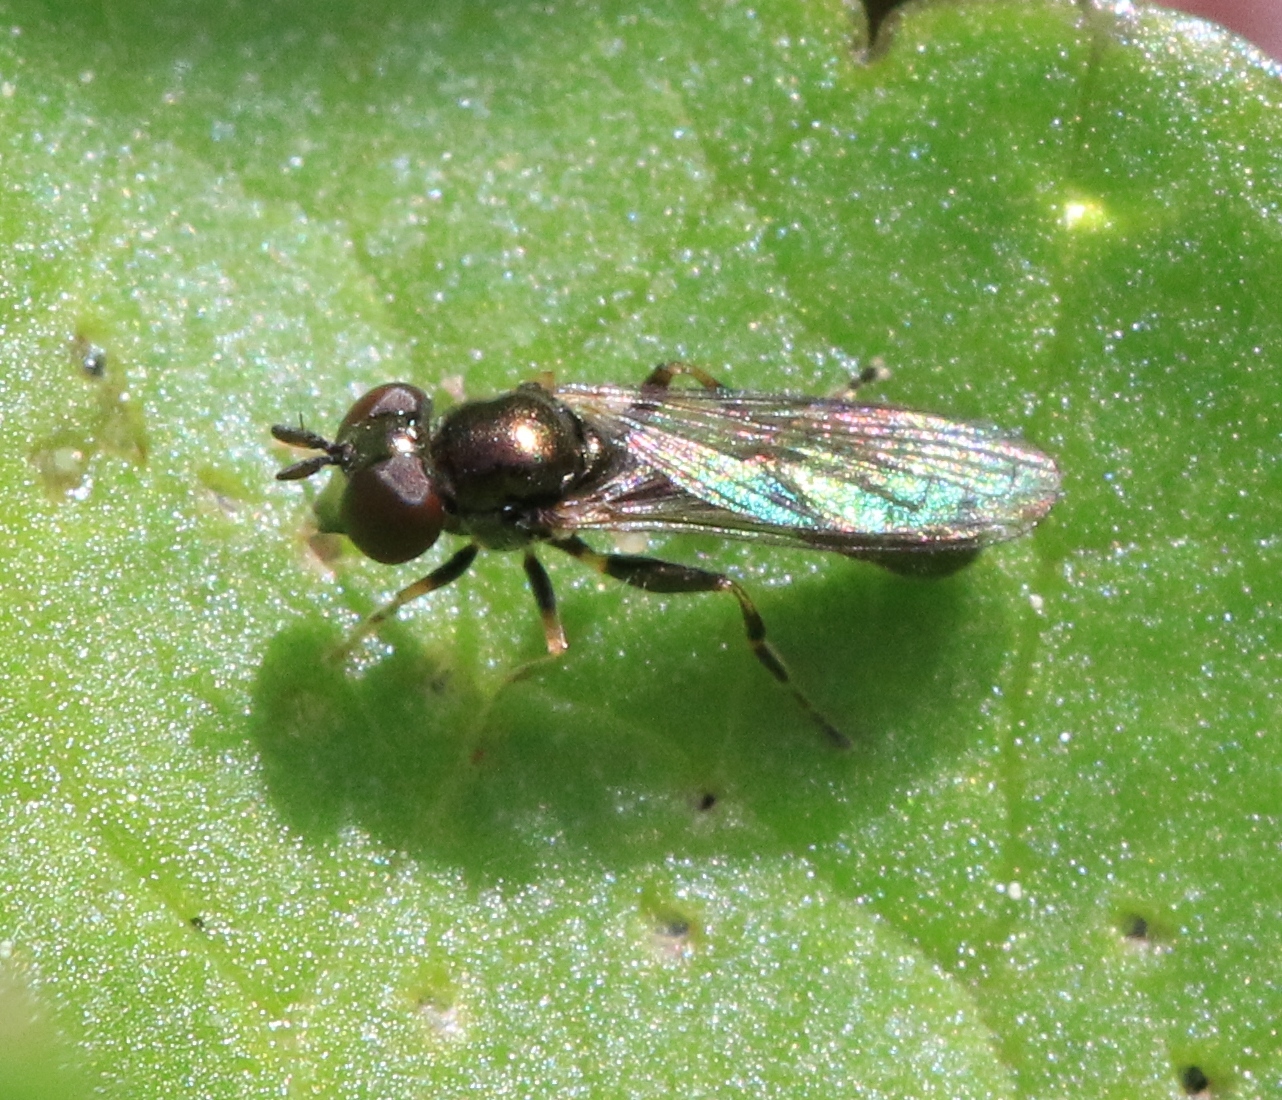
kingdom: Animalia
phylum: Arthropoda
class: Insecta
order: Diptera
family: Syrphidae
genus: Neoascia
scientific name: Neoascia tenur
